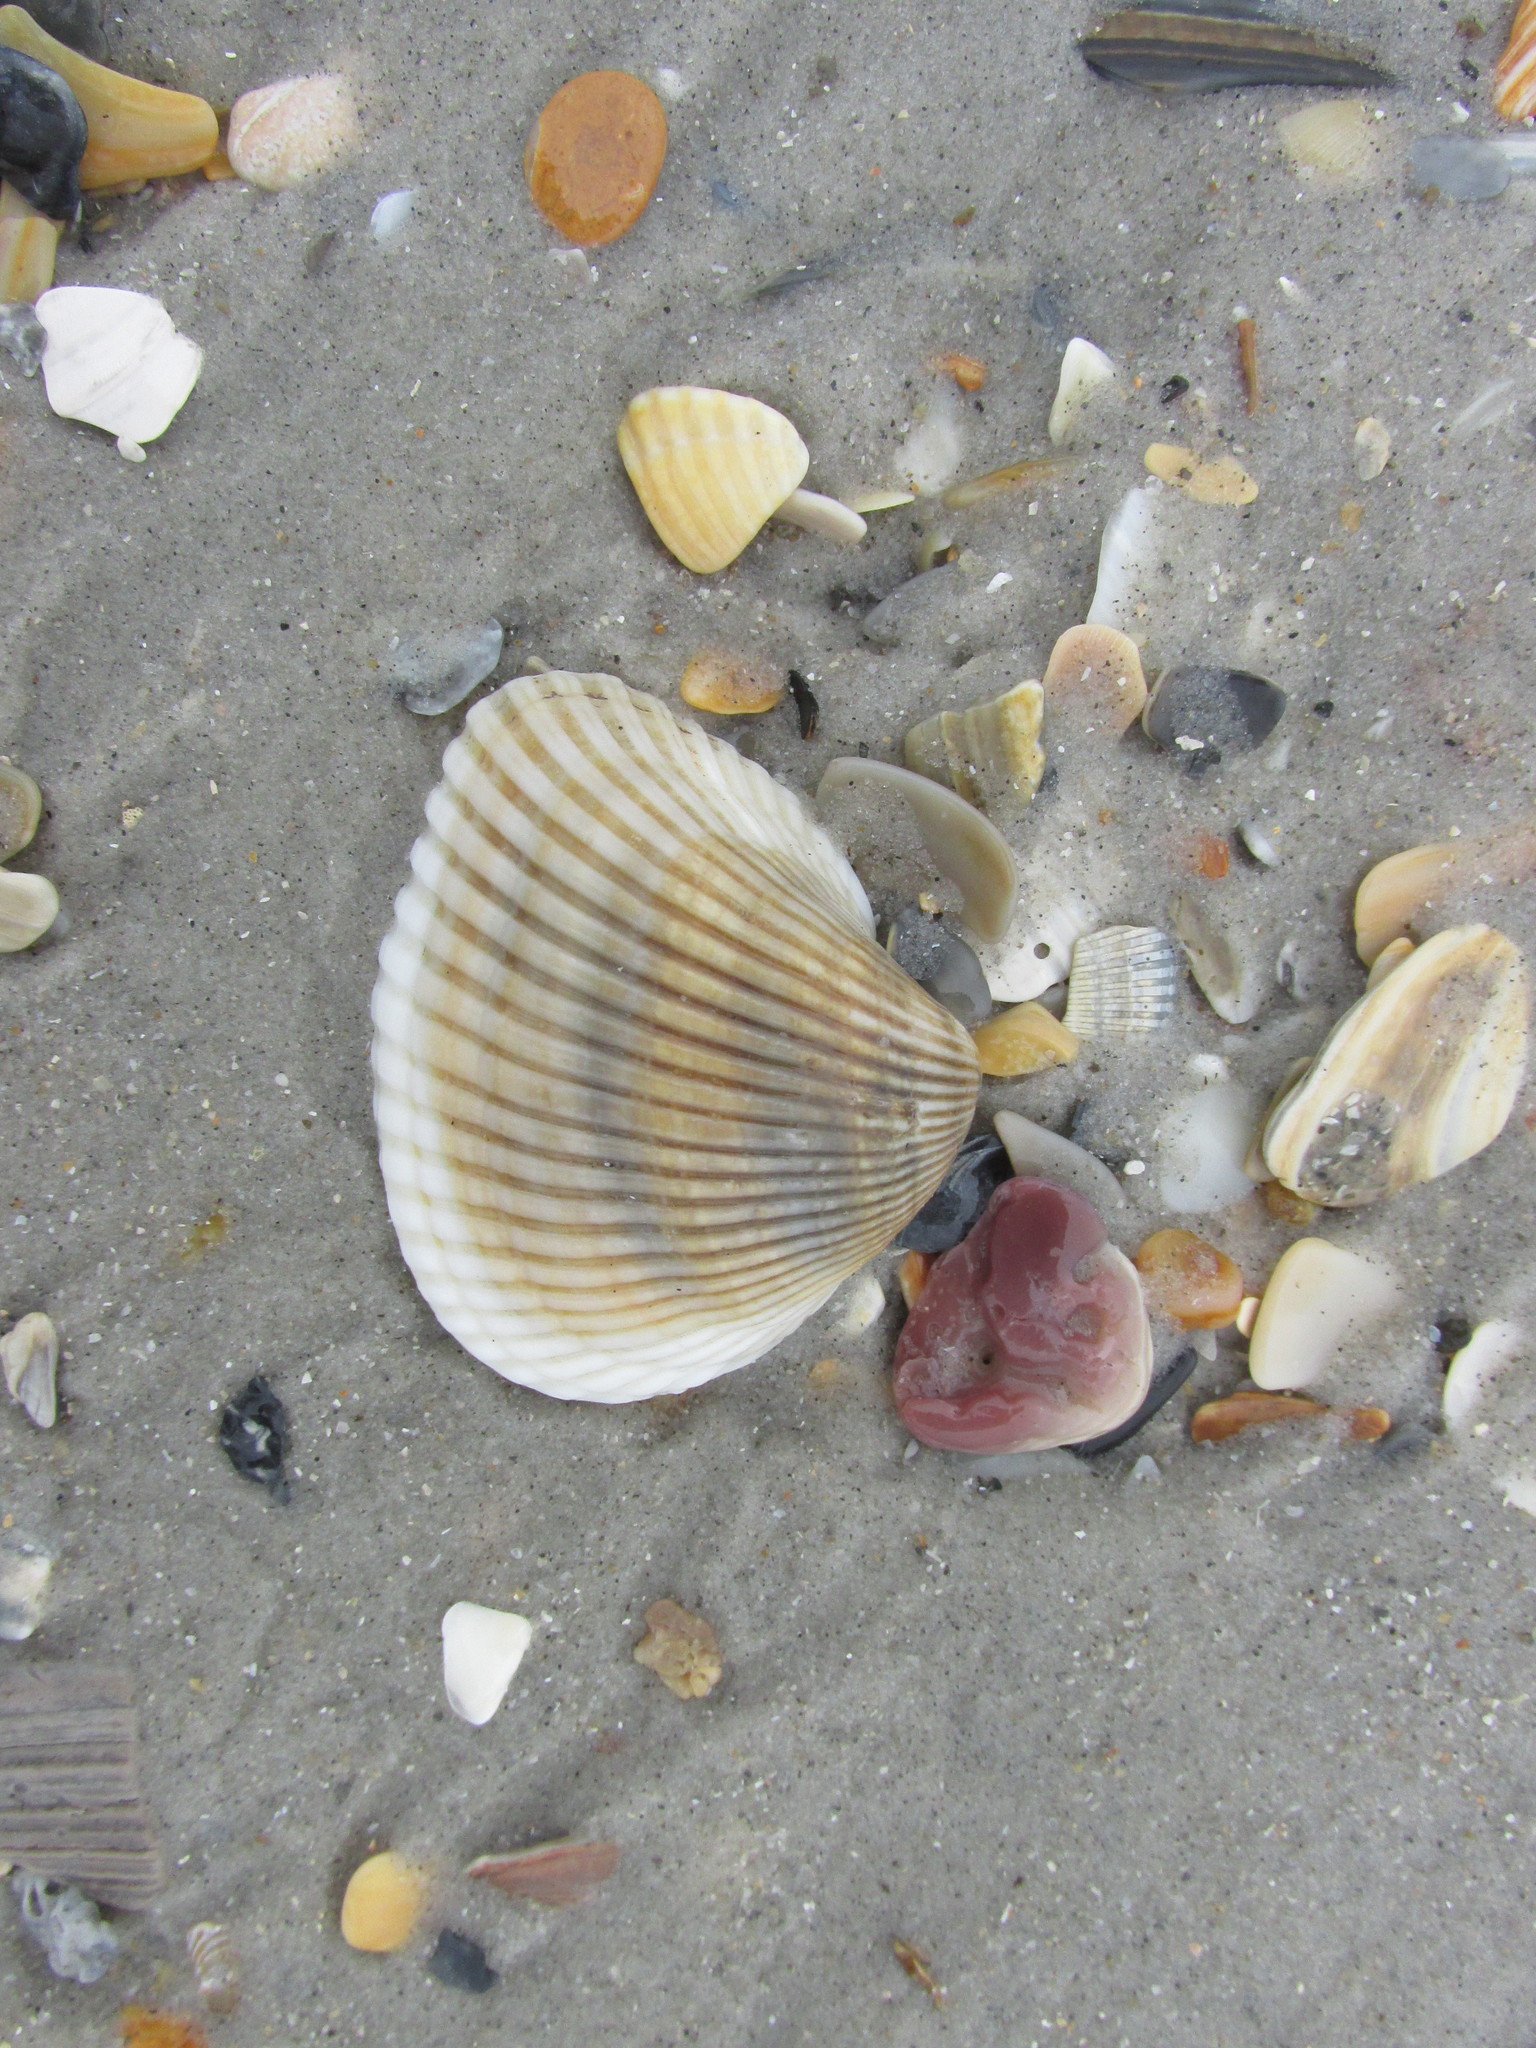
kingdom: Animalia
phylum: Mollusca
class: Bivalvia
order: Arcida
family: Noetiidae
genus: Noetia
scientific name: Noetia ponderosa
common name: Ponderous ark
